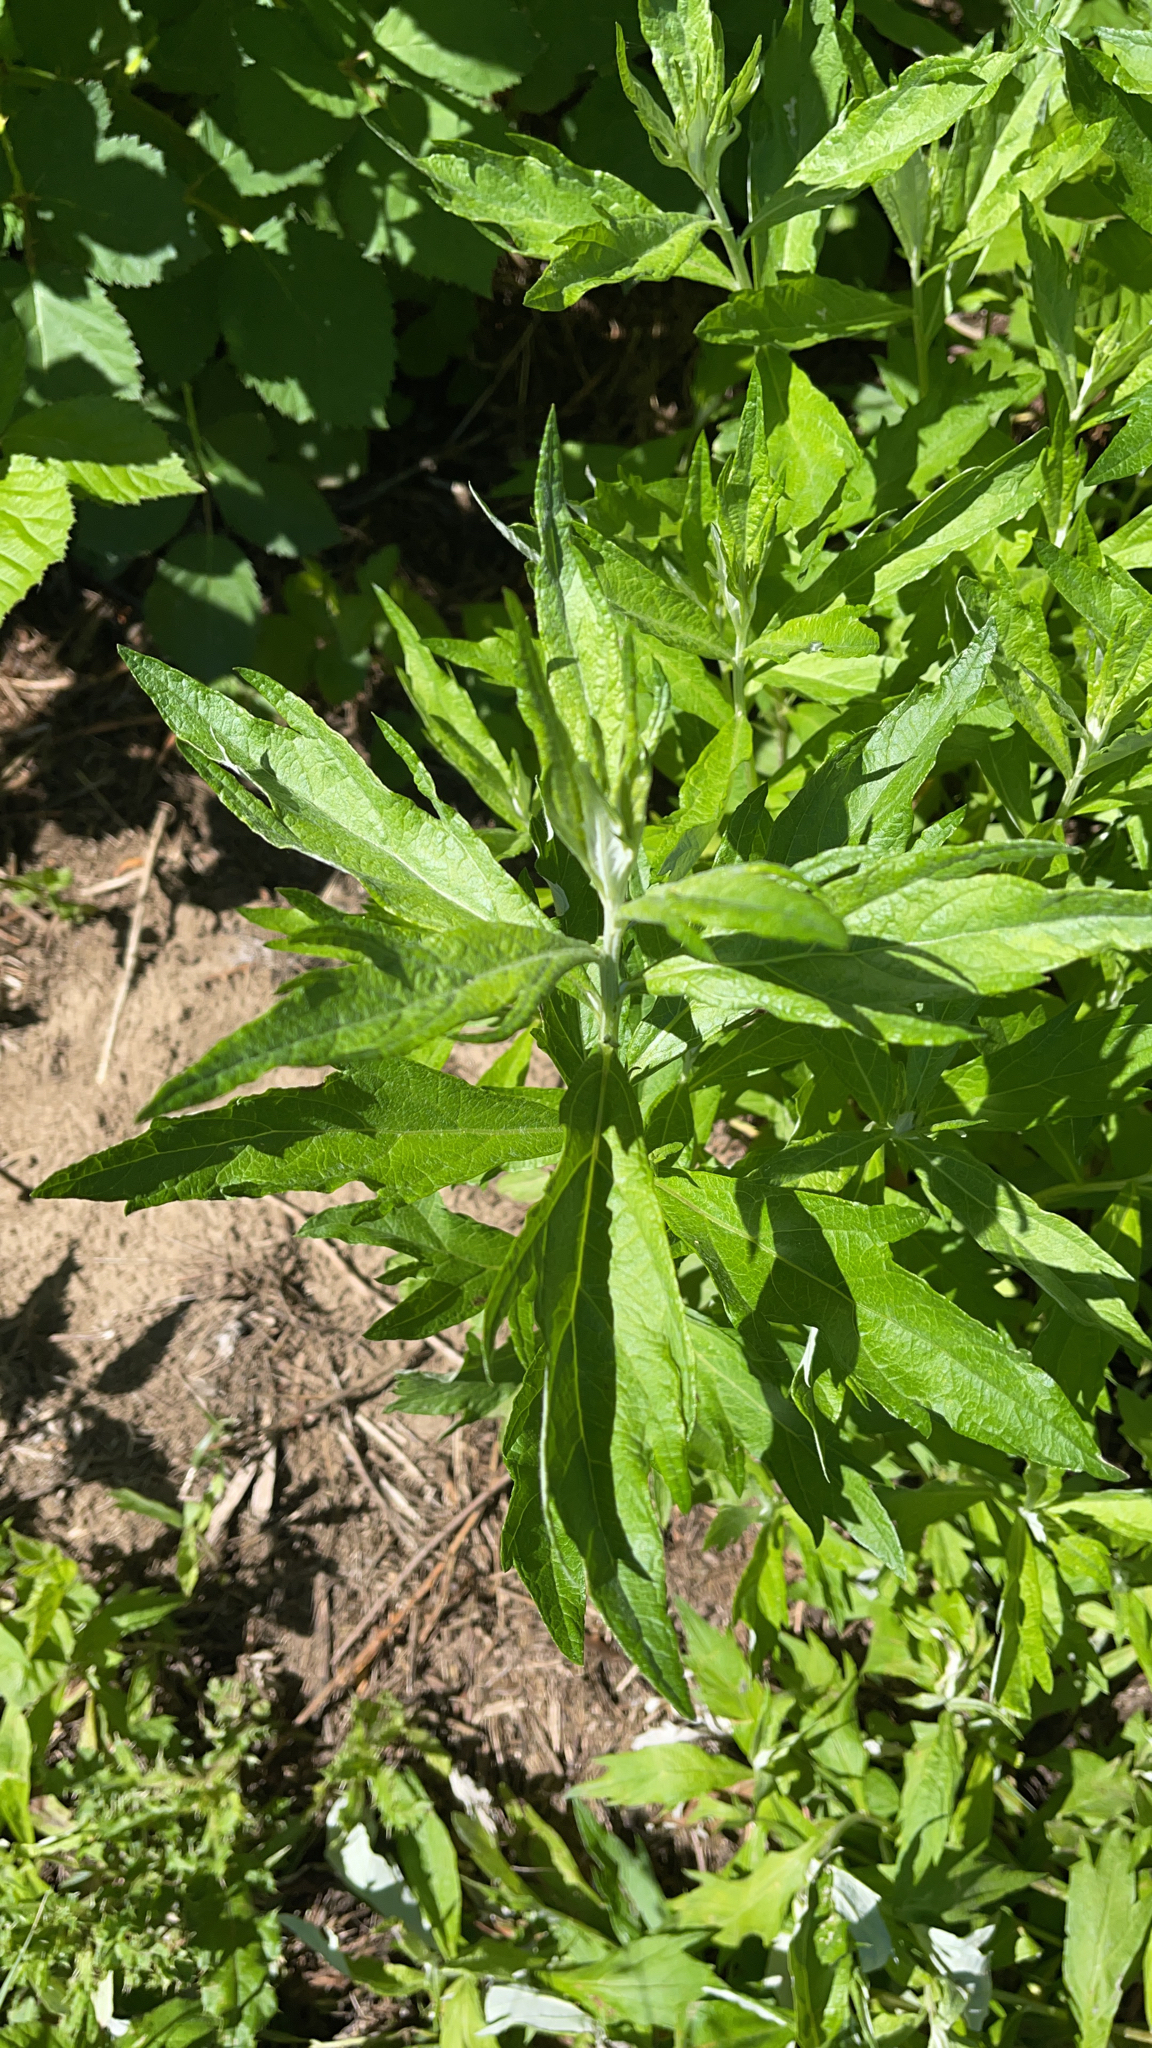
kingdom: Plantae
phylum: Tracheophyta
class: Magnoliopsida
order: Asterales
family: Asteraceae
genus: Artemisia
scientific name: Artemisia douglasiana
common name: Northwest mugwort
